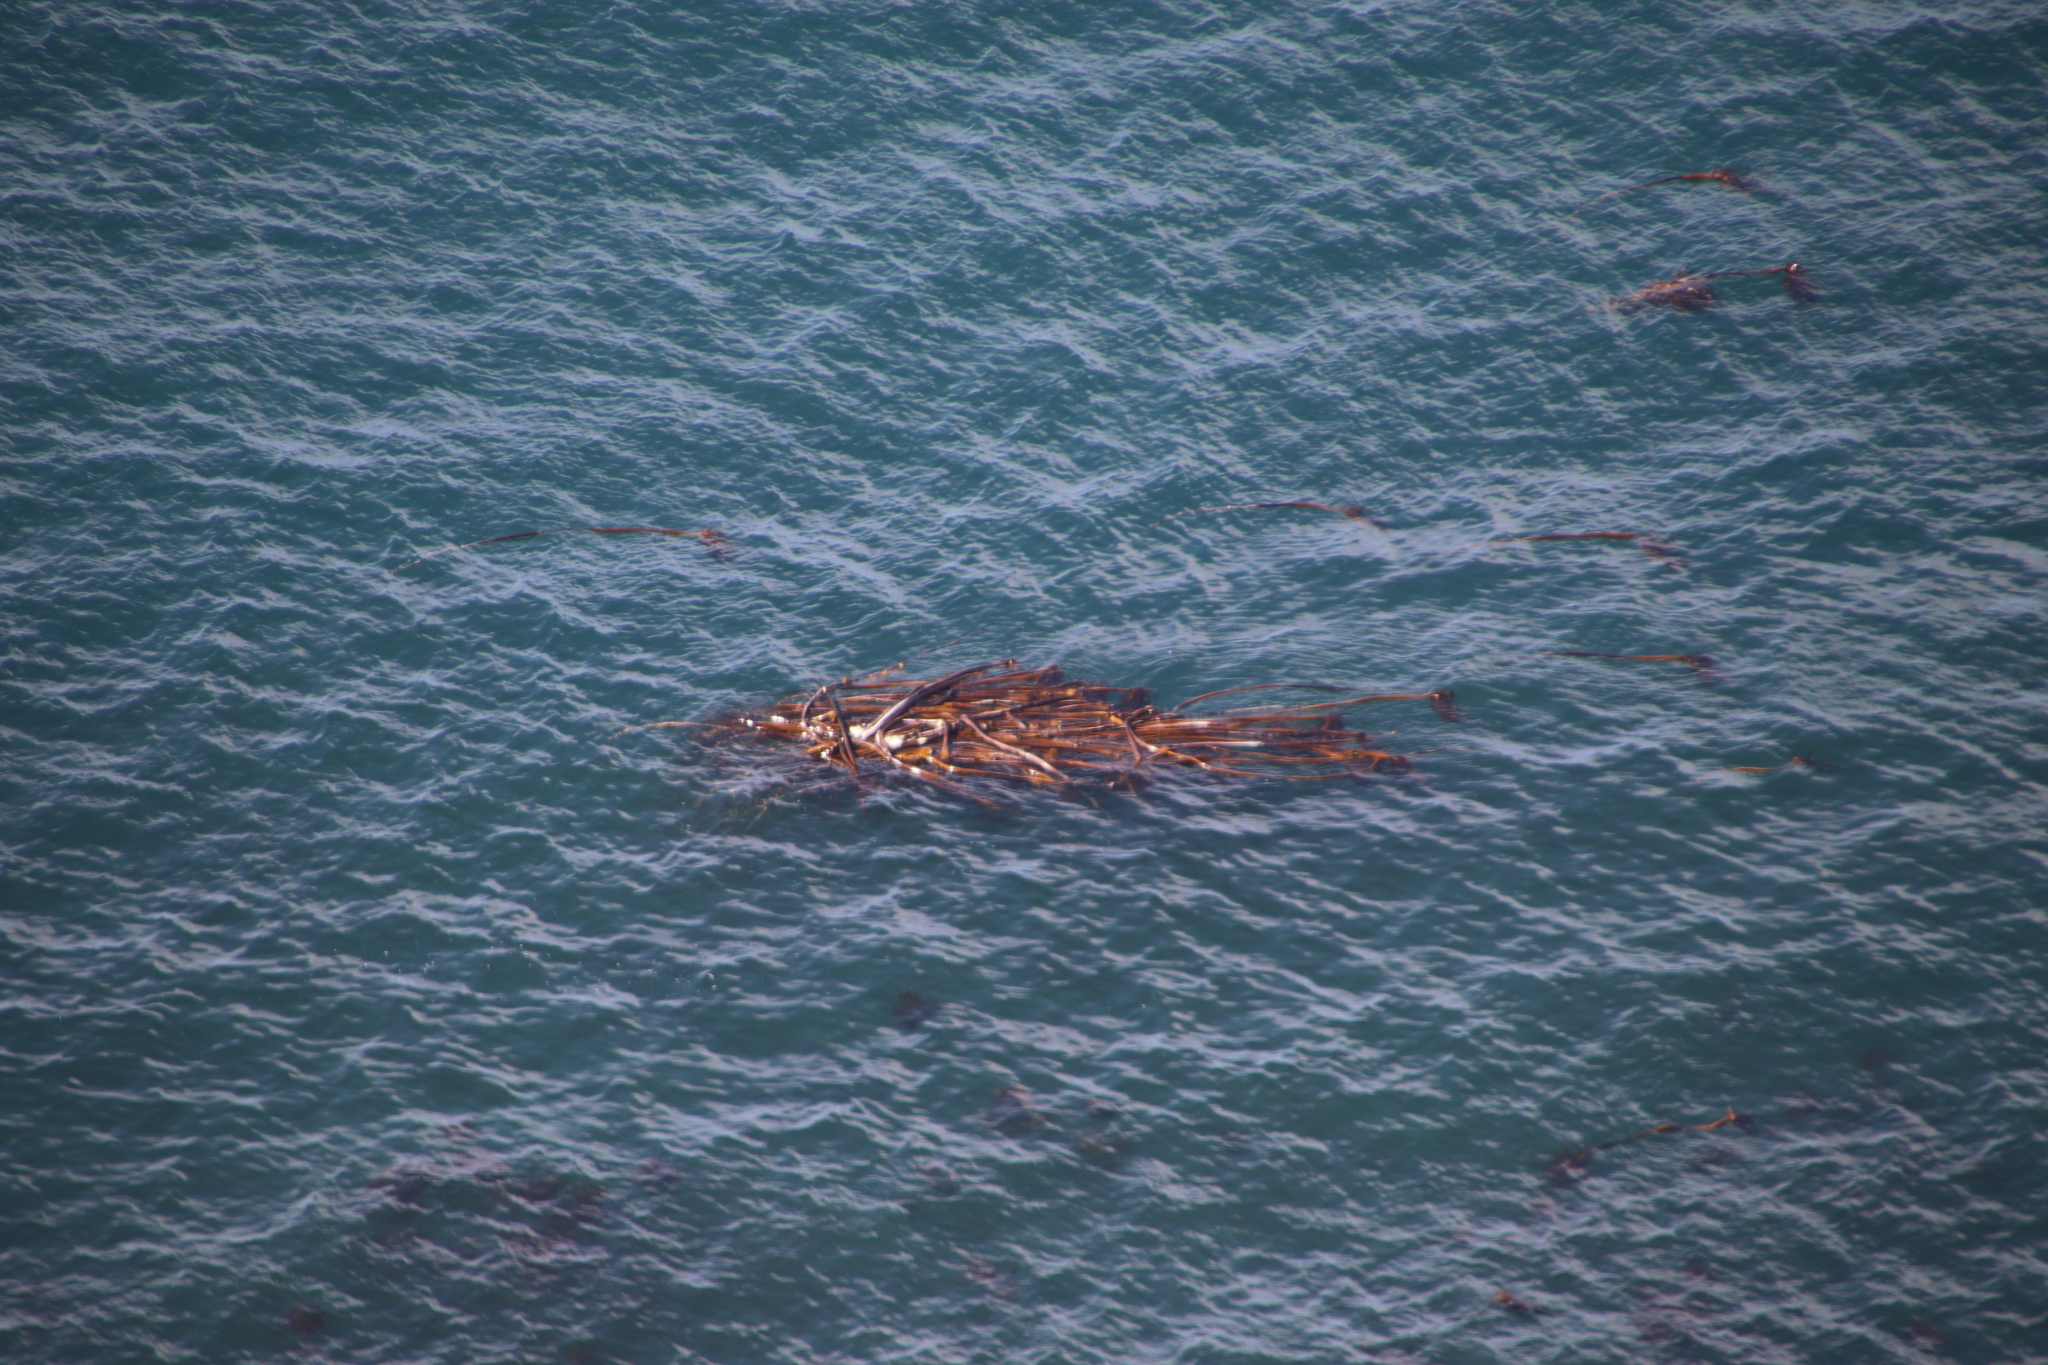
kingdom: Chromista
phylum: Ochrophyta
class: Phaeophyceae
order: Laminariales
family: Lessoniaceae
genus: Ecklonia
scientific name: Ecklonia
